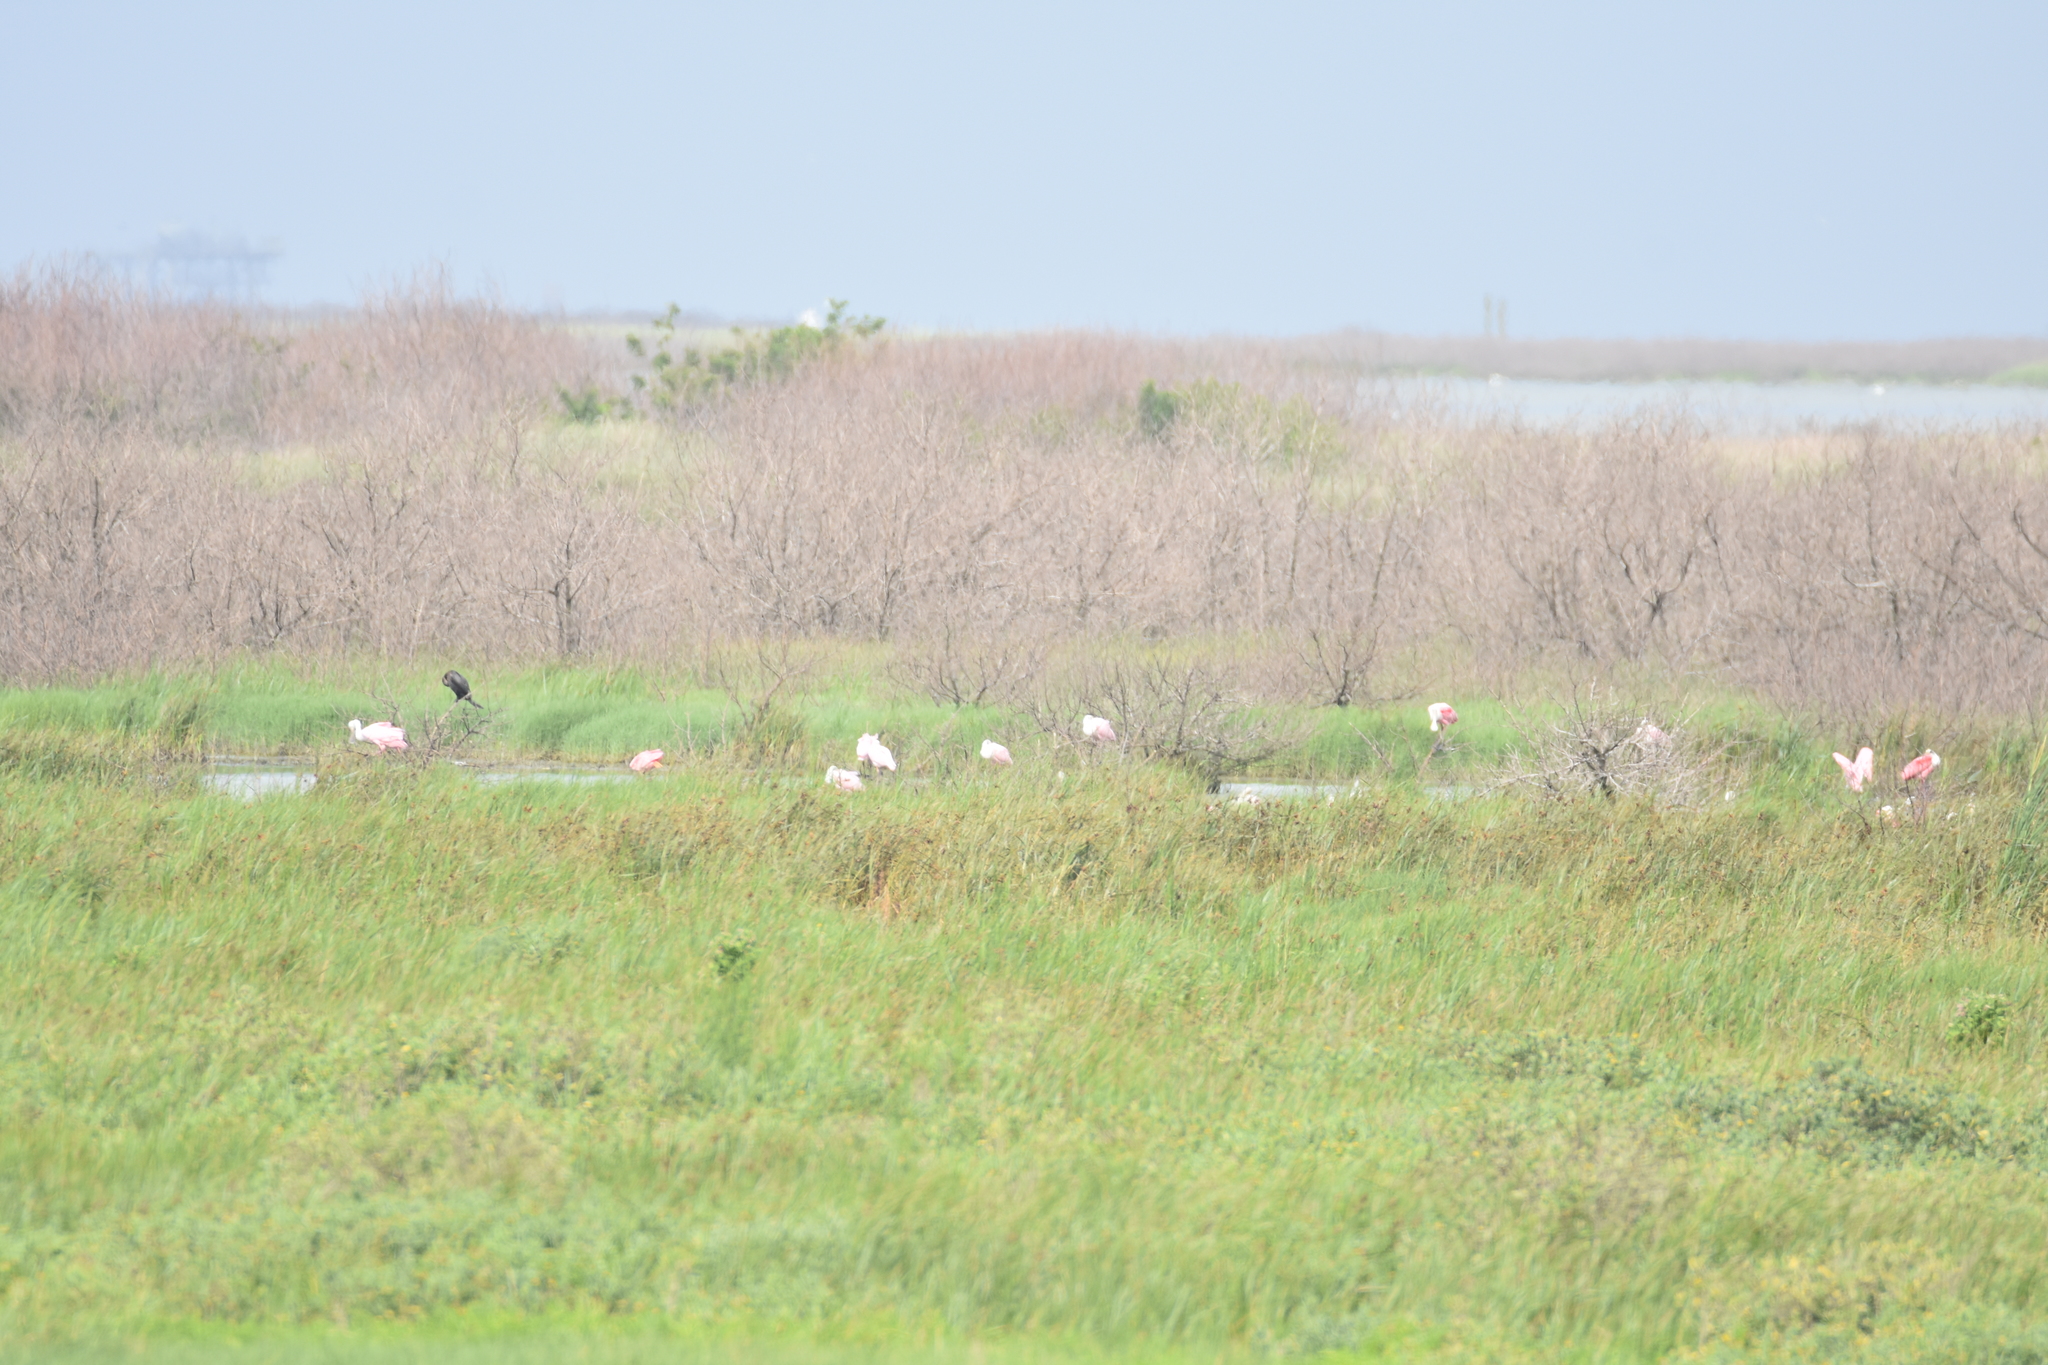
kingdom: Animalia
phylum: Chordata
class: Aves
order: Pelecaniformes
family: Threskiornithidae
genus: Platalea
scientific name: Platalea ajaja
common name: Roseate spoonbill
